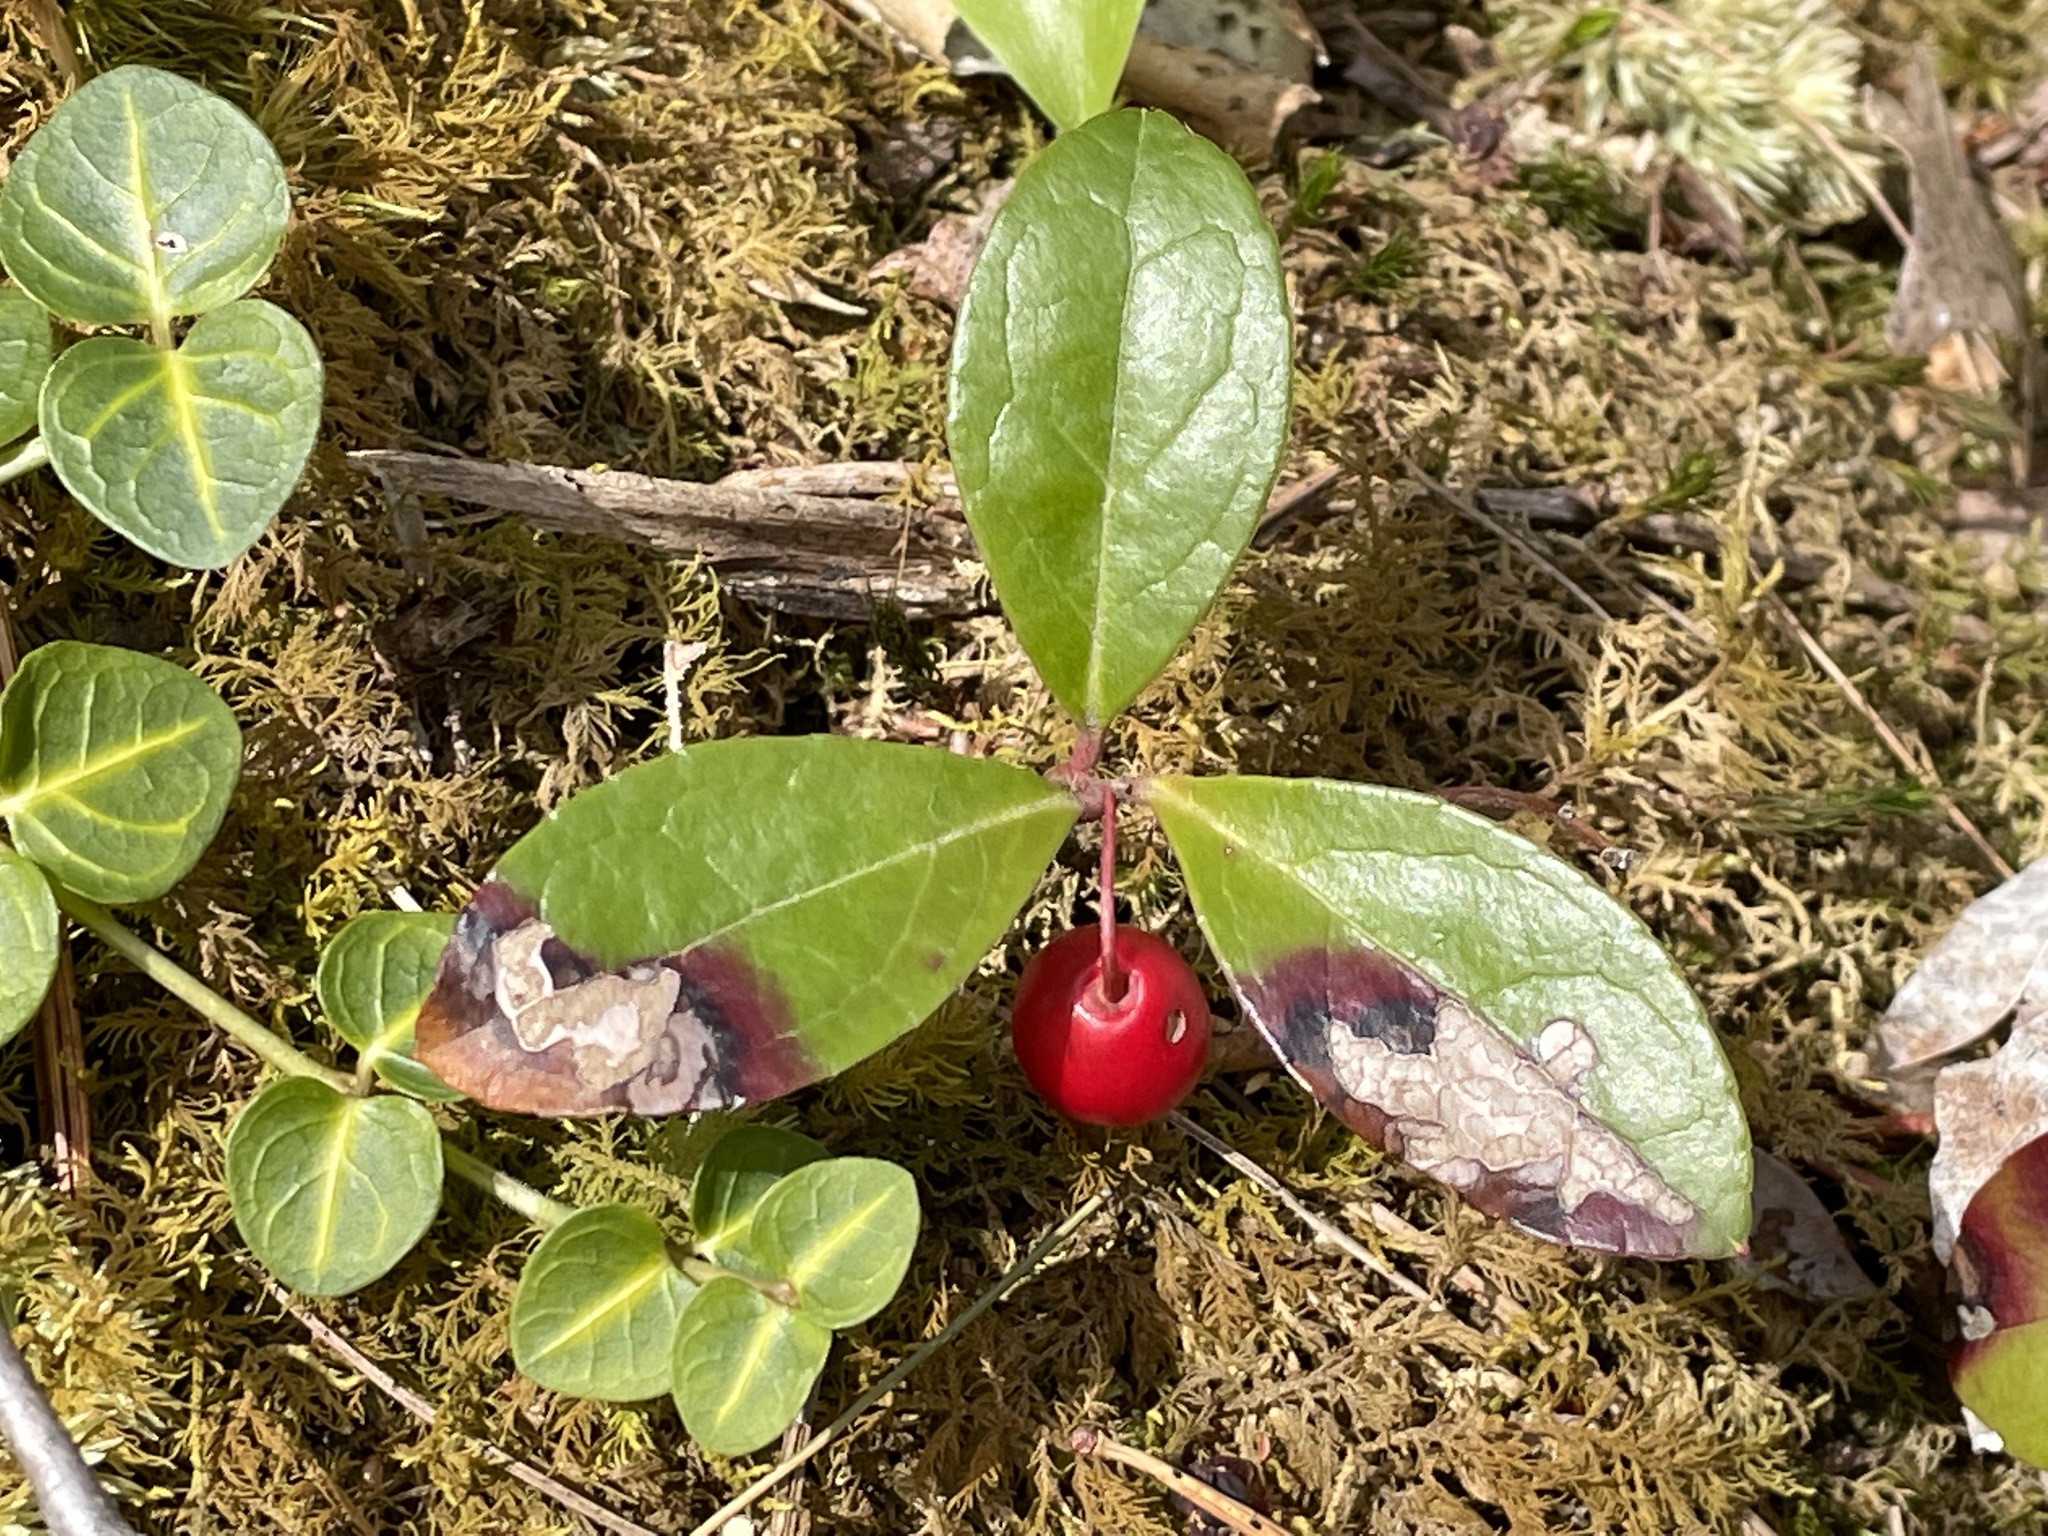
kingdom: Plantae
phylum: Tracheophyta
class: Magnoliopsida
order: Ericales
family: Ericaceae
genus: Gaultheria
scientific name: Gaultheria procumbens
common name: Checkerberry
